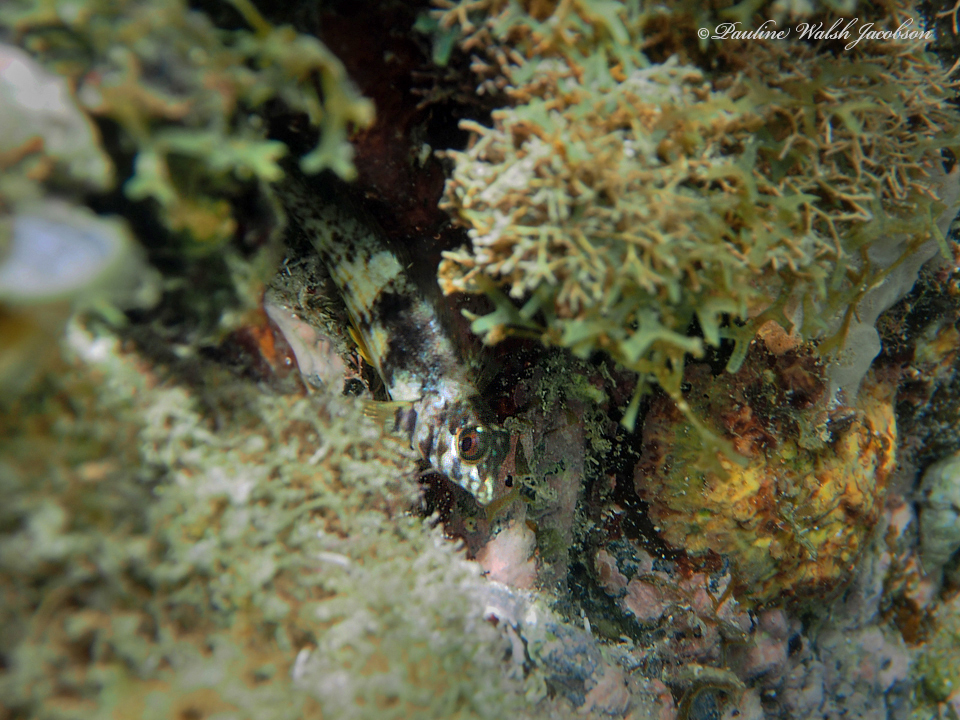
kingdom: Animalia
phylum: Chordata
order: Perciformes
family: Labrisomidae
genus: Malacoctenus
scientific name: Malacoctenus aurolineatus
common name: Goldline blenny
